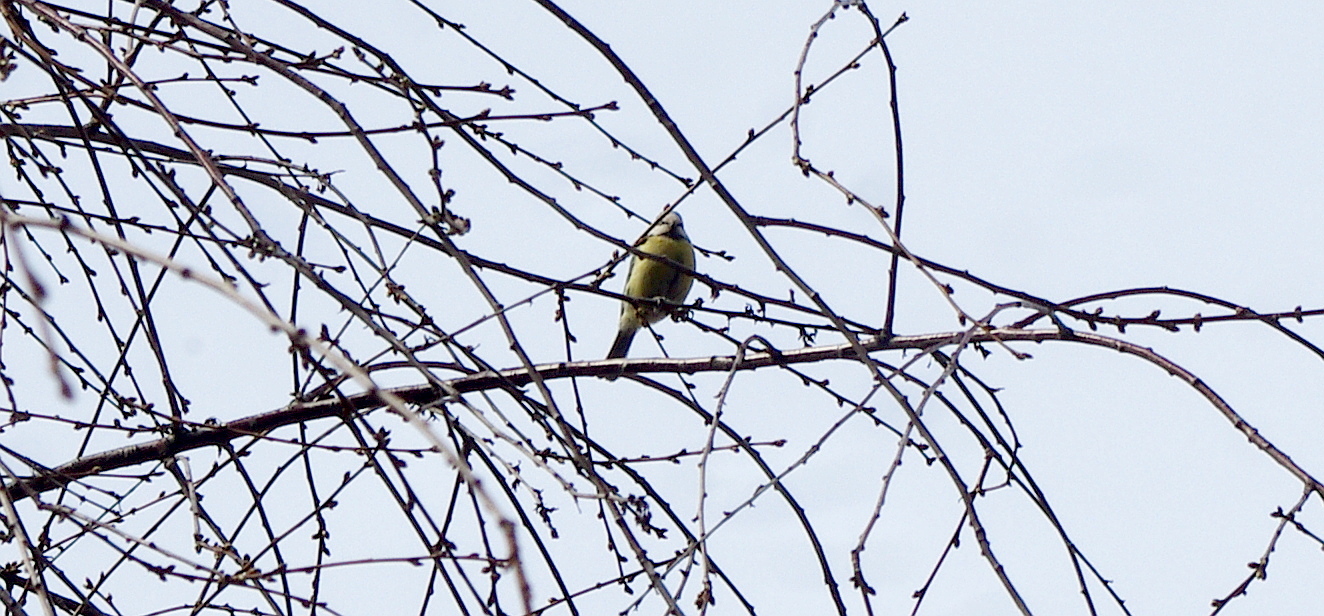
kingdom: Animalia
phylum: Chordata
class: Aves
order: Passeriformes
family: Paridae
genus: Cyanistes
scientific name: Cyanistes caeruleus
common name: Eurasian blue tit
